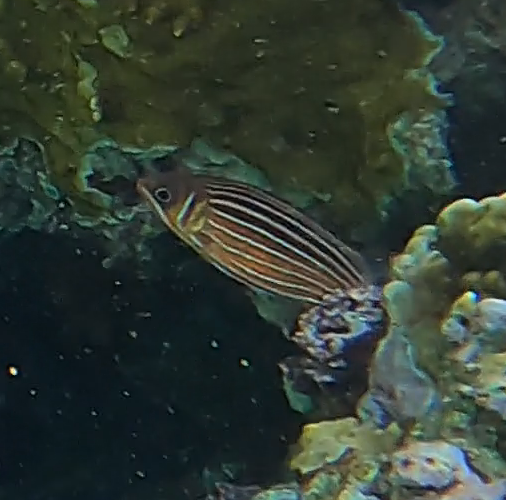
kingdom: Animalia
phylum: Chordata
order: Beryciformes
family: Holocentridae
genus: Sargocentron
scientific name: Sargocentron diadema
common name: Crown squirrelfish
